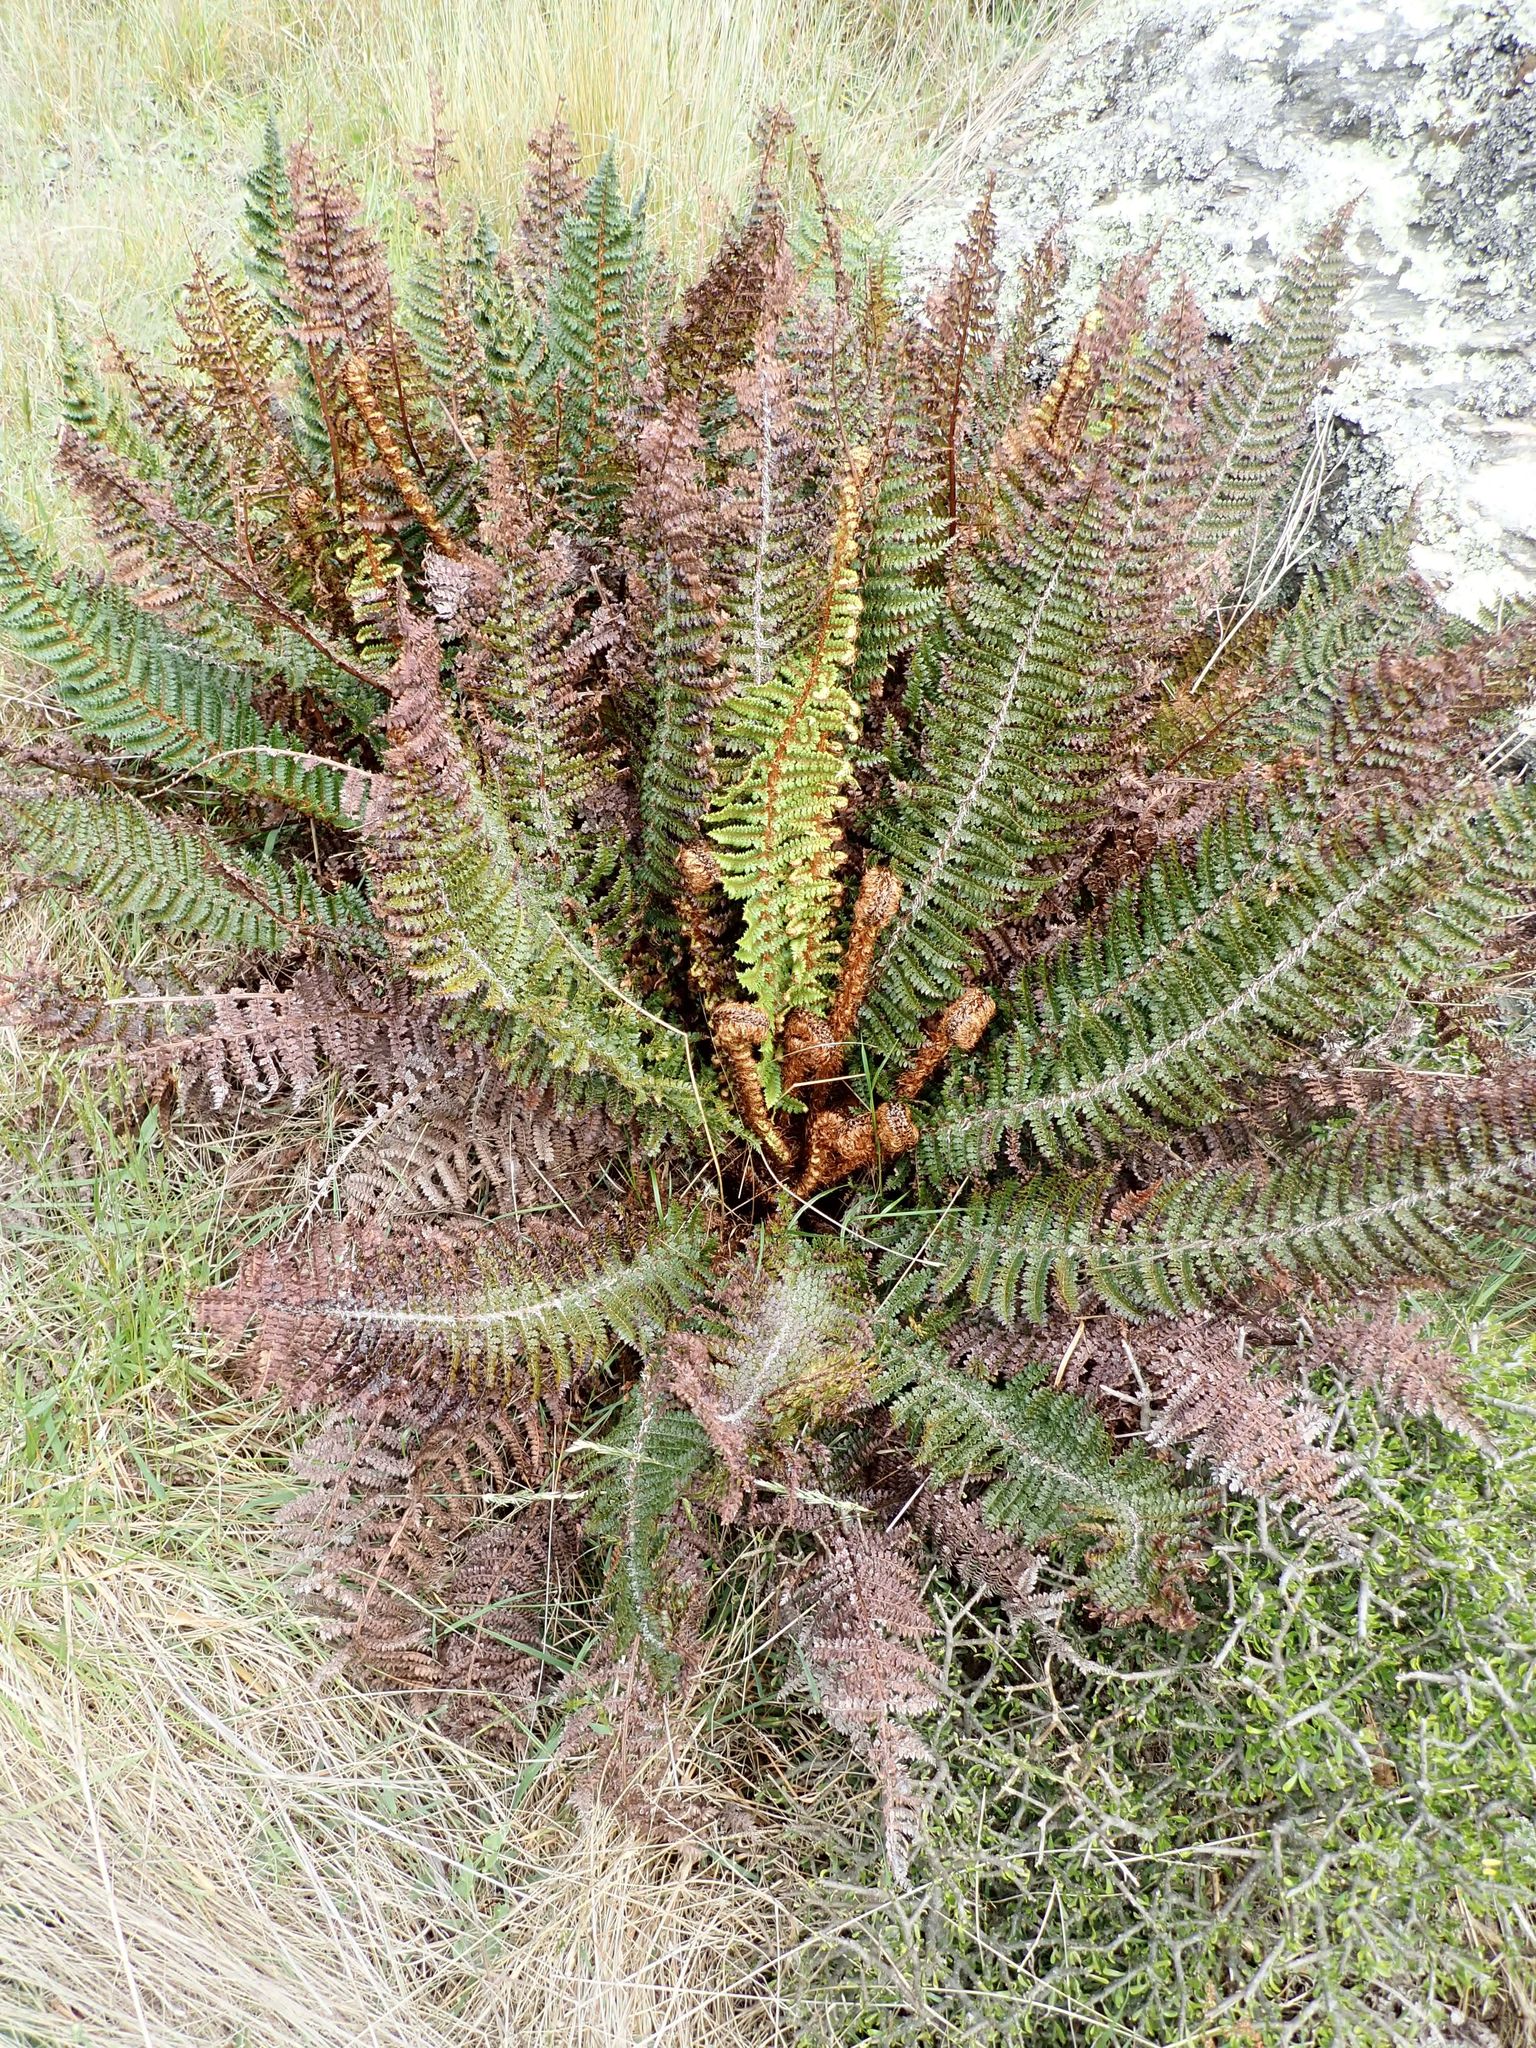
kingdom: Plantae
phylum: Tracheophyta
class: Polypodiopsida
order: Polypodiales
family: Dryopteridaceae
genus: Polystichum
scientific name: Polystichum vestitum
